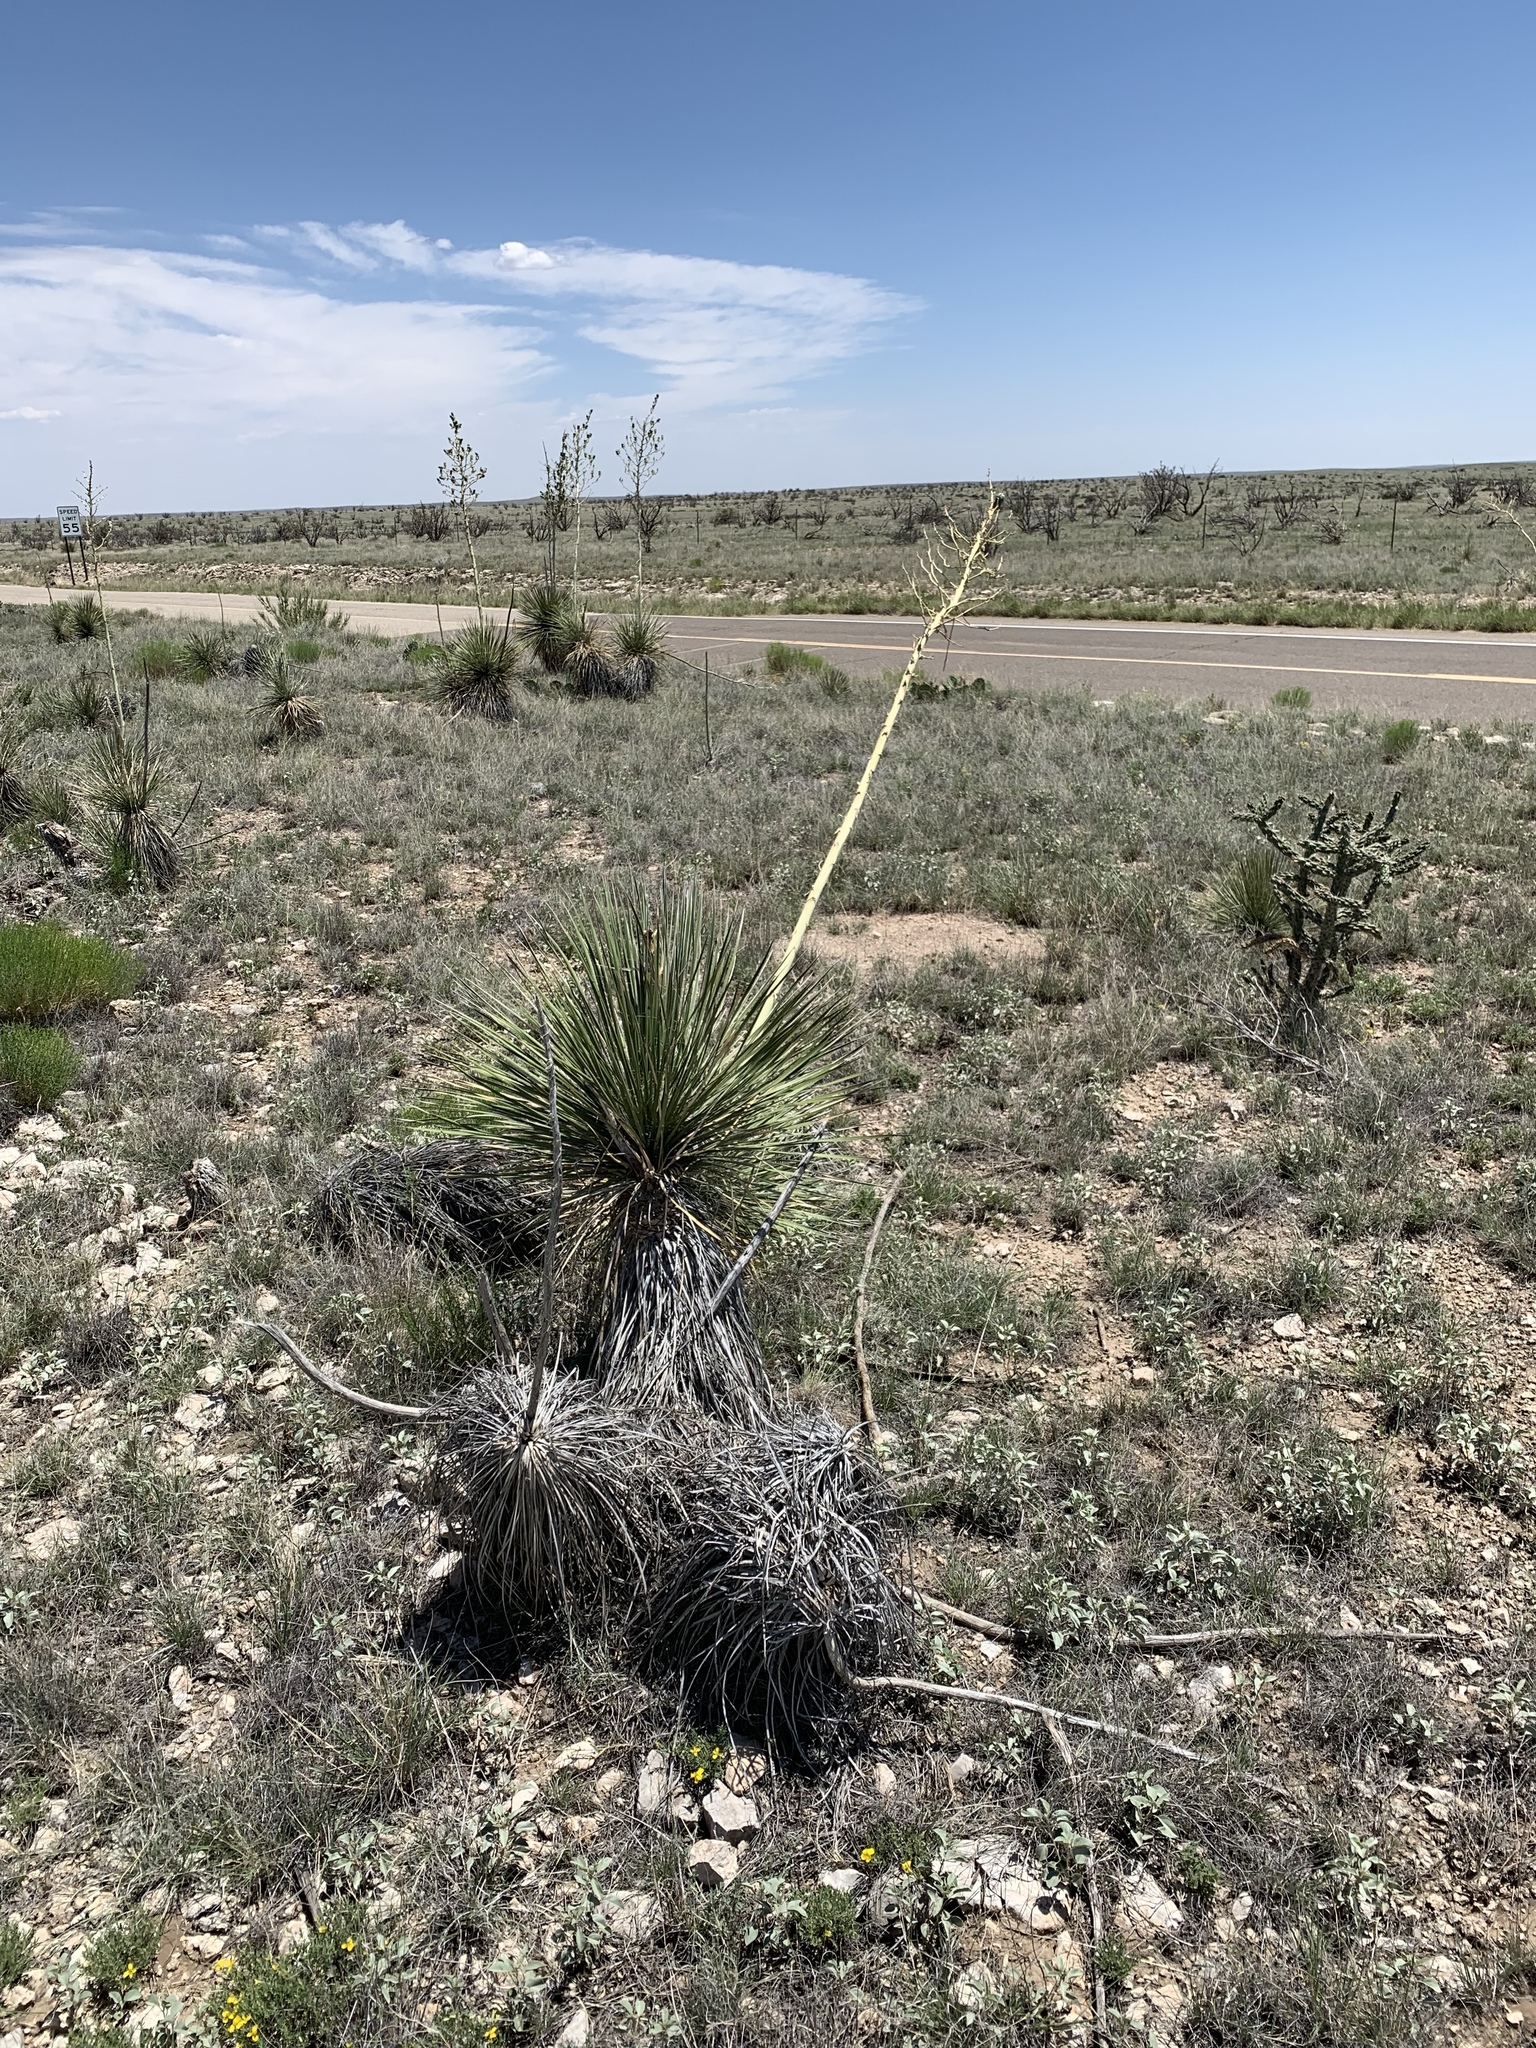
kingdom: Plantae
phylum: Tracheophyta
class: Liliopsida
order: Asparagales
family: Asparagaceae
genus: Yucca
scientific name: Yucca elata
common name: Palmella
